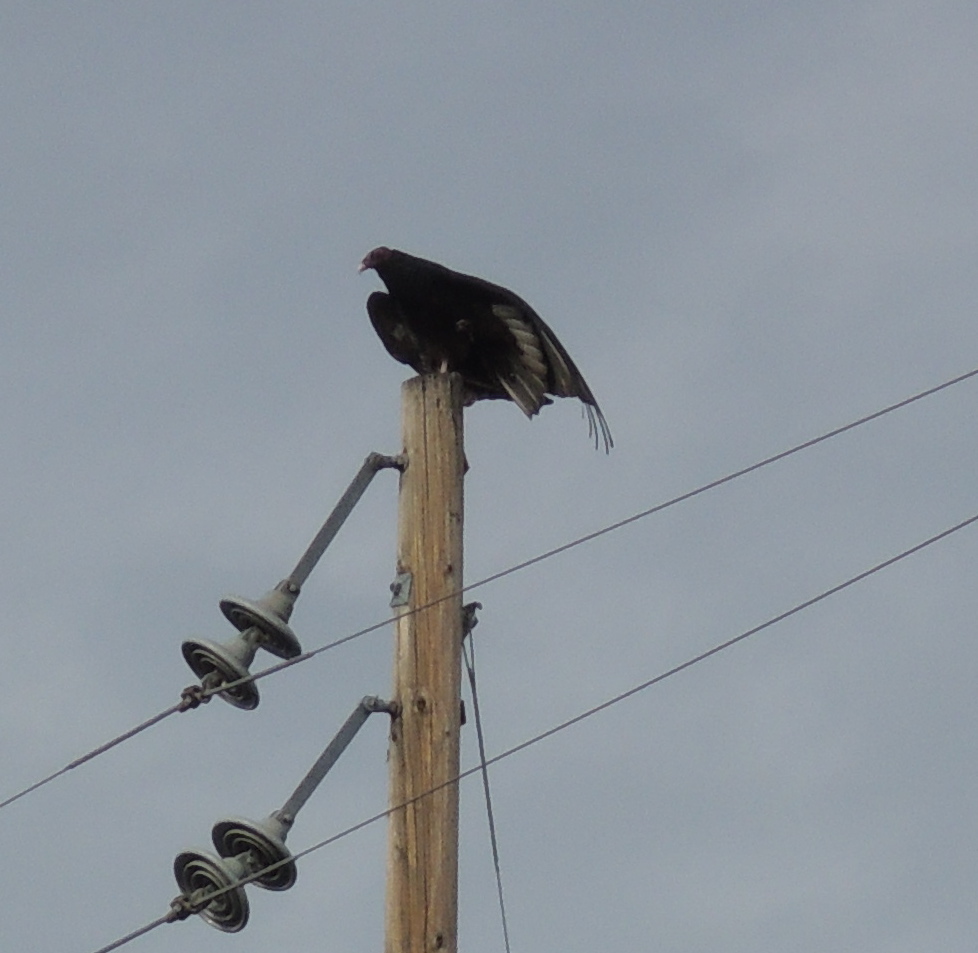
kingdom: Animalia
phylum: Chordata
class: Aves
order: Accipitriformes
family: Cathartidae
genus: Cathartes
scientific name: Cathartes aura
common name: Turkey vulture
